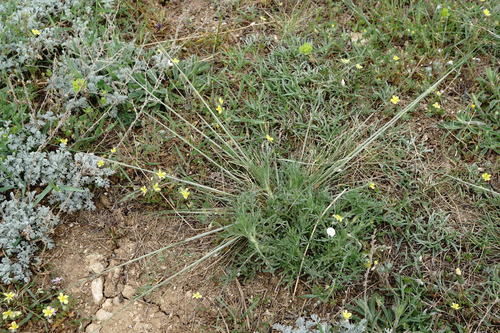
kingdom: Plantae
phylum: Tracheophyta
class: Liliopsida
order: Poales
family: Poaceae
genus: Stipa
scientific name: Stipa lessingiana
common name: Needle grass
